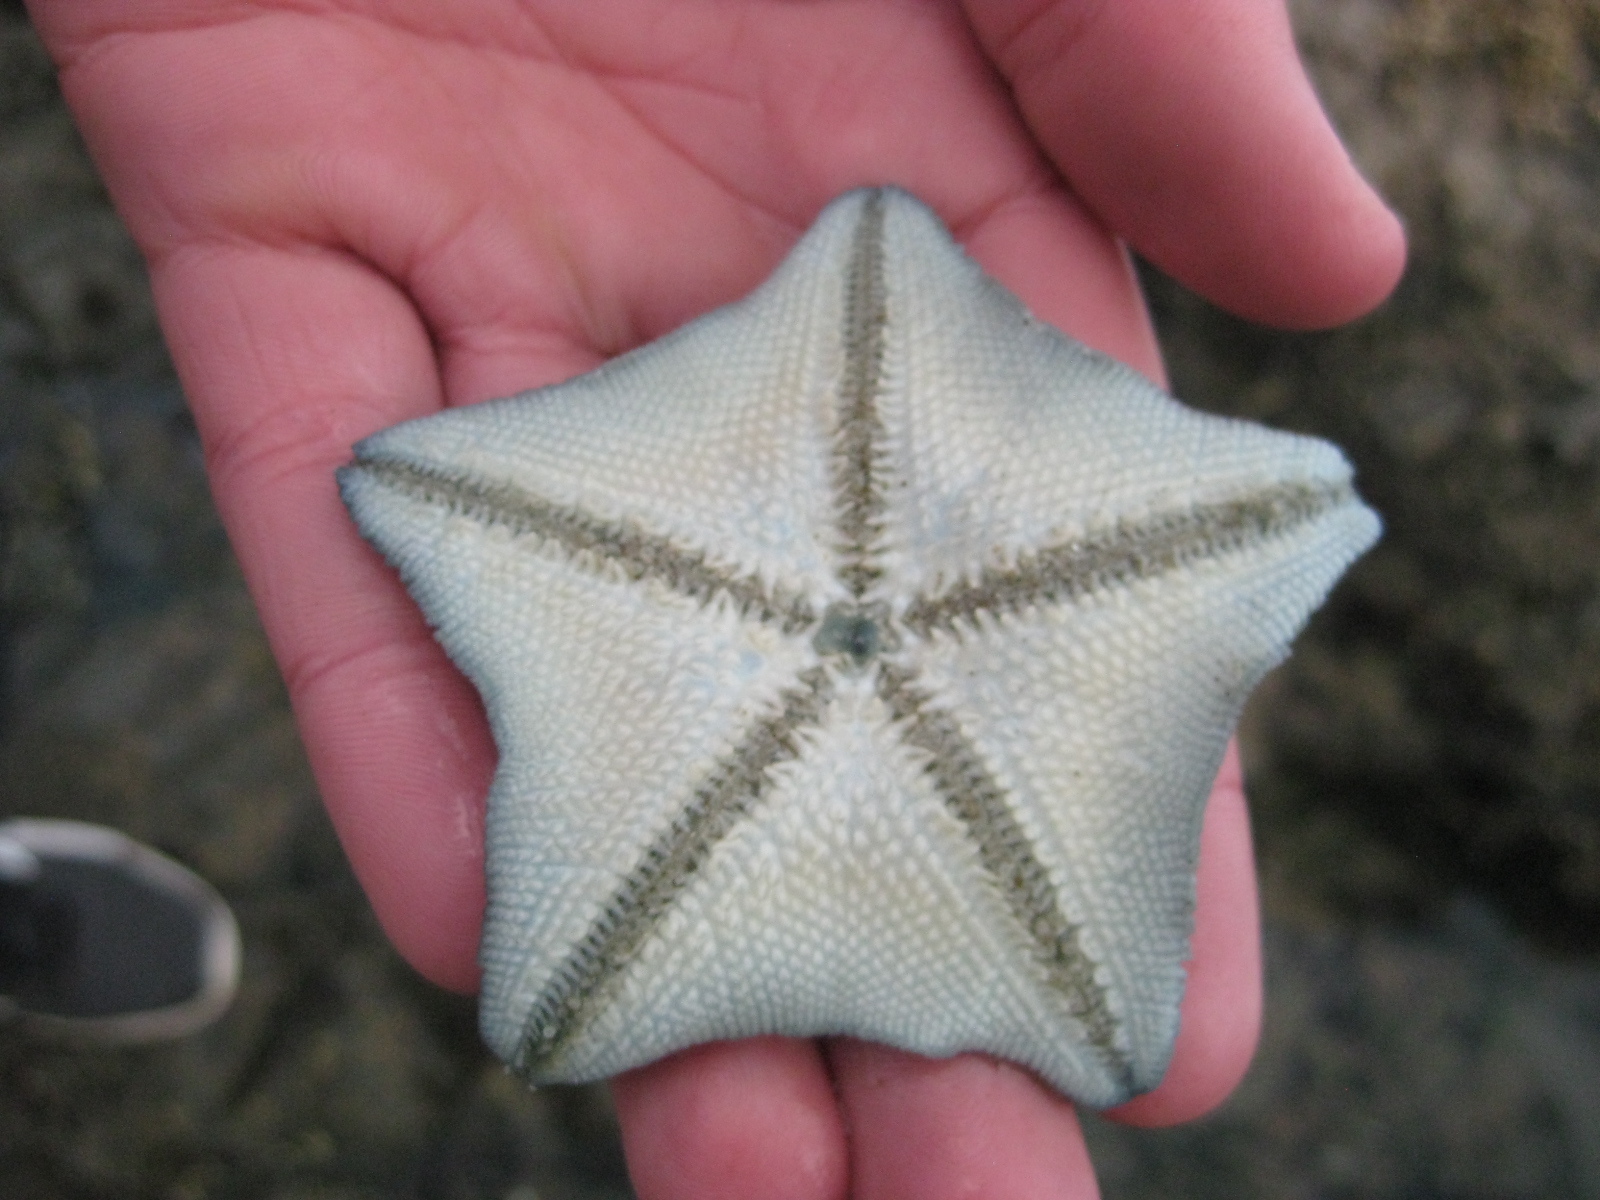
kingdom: Animalia
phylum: Echinodermata
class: Asteroidea
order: Valvatida
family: Asterinidae
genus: Patiriella
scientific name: Patiriella regularis
